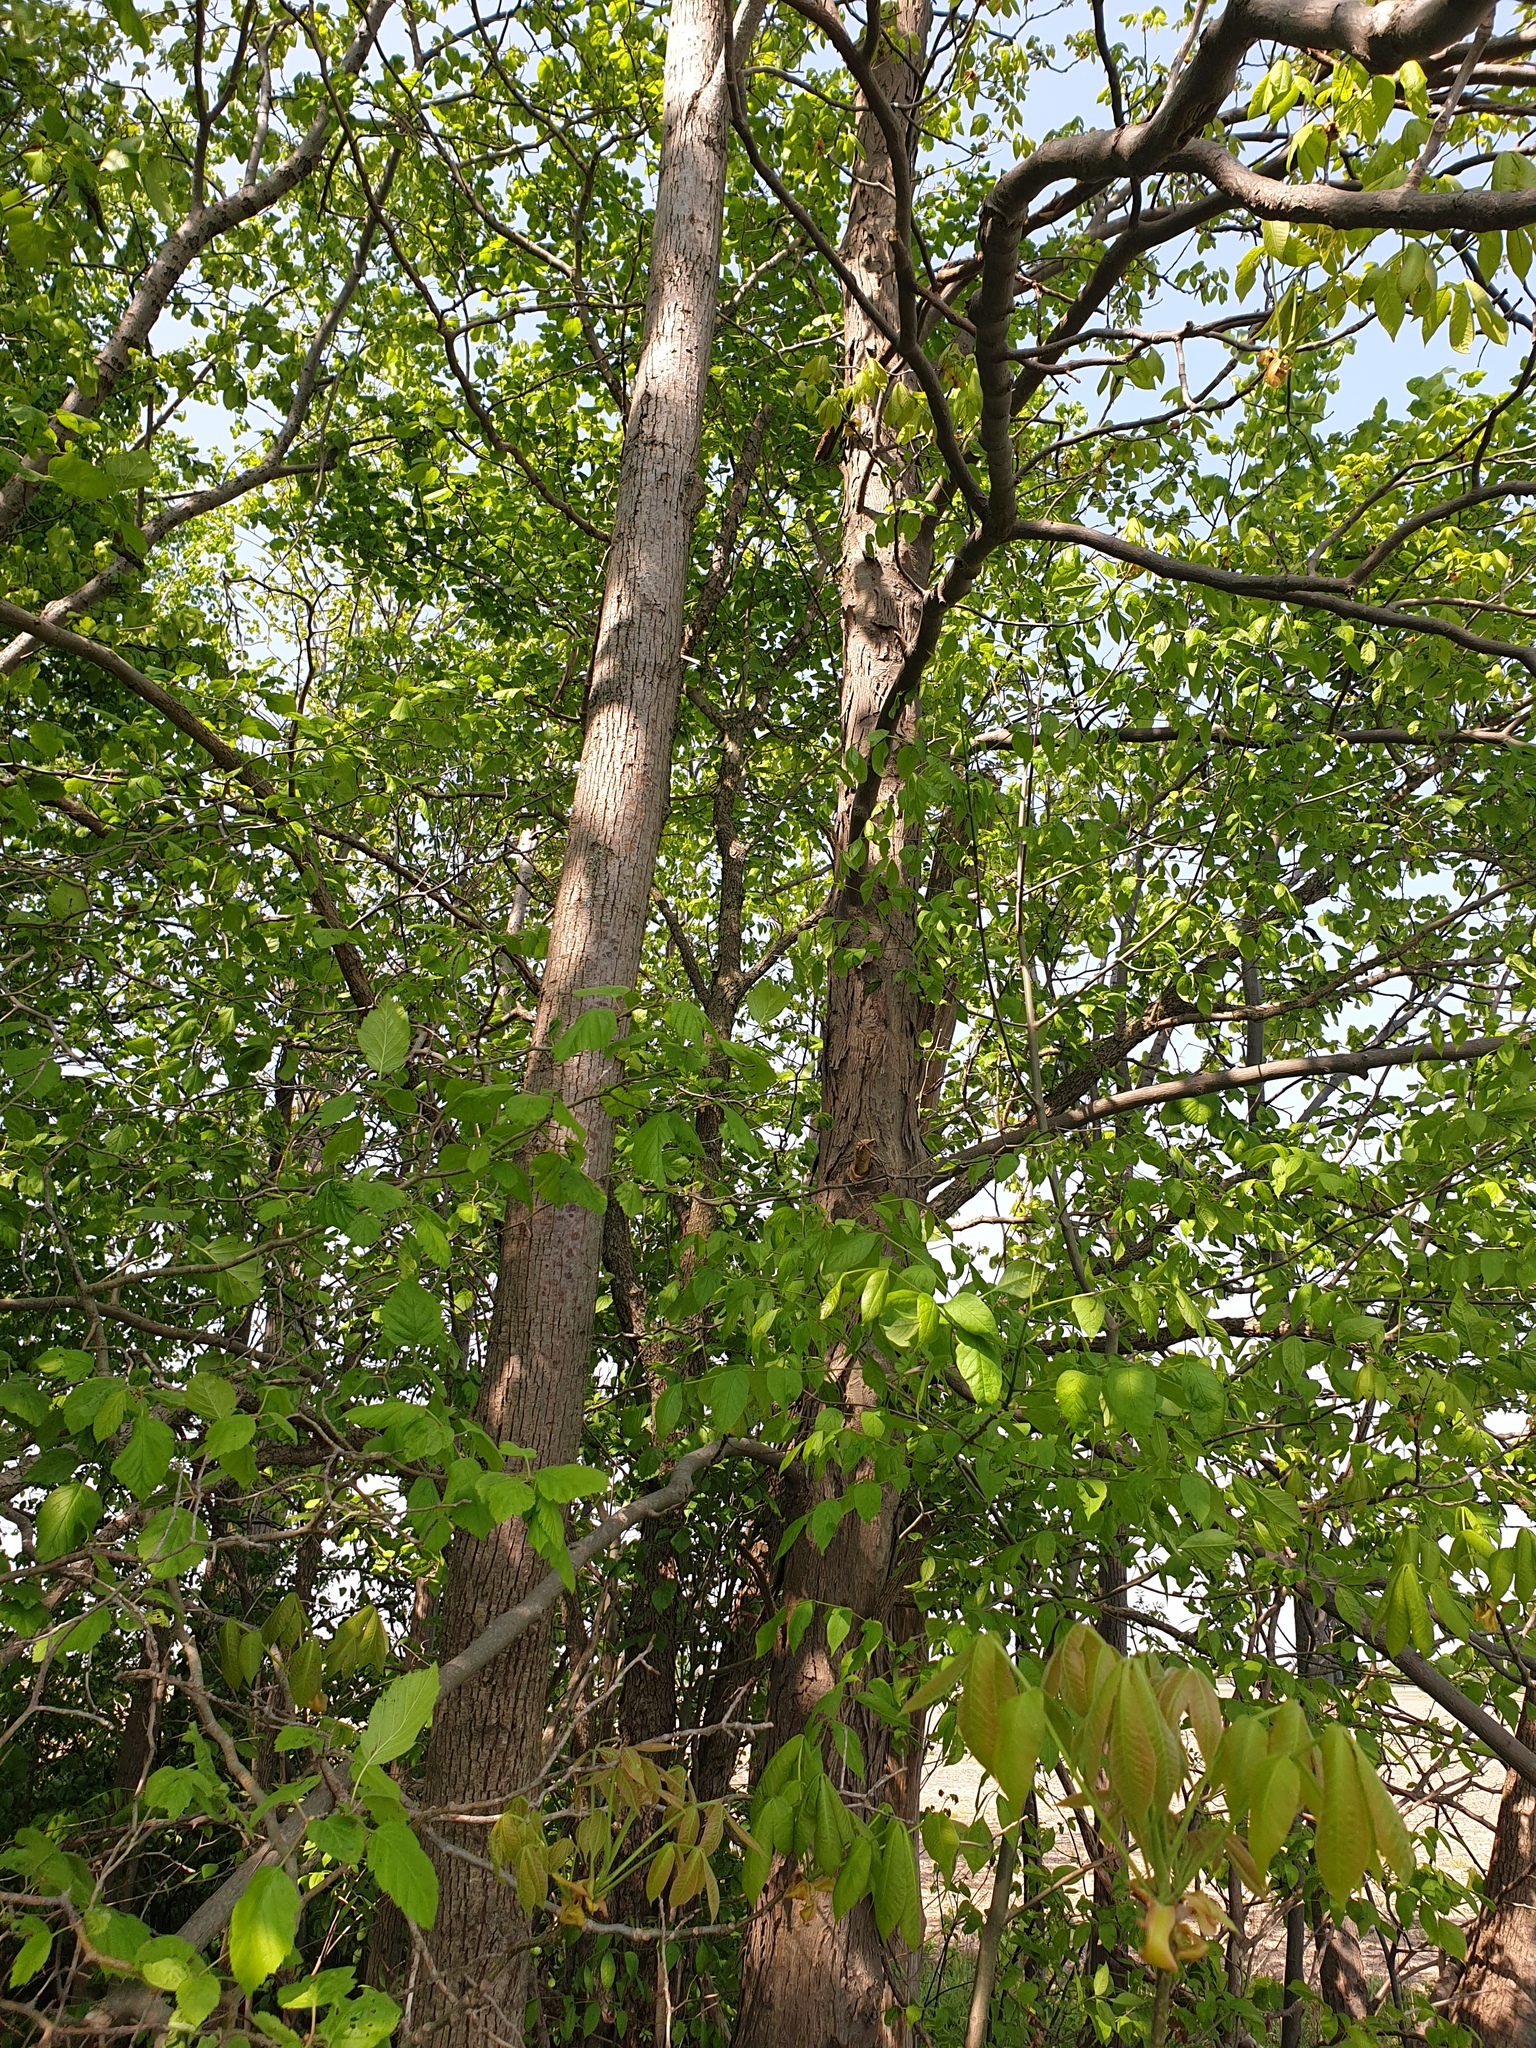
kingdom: Plantae
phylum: Tracheophyta
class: Magnoliopsida
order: Fagales
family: Juglandaceae
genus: Carya
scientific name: Carya ovata
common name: Shagbark hickory
